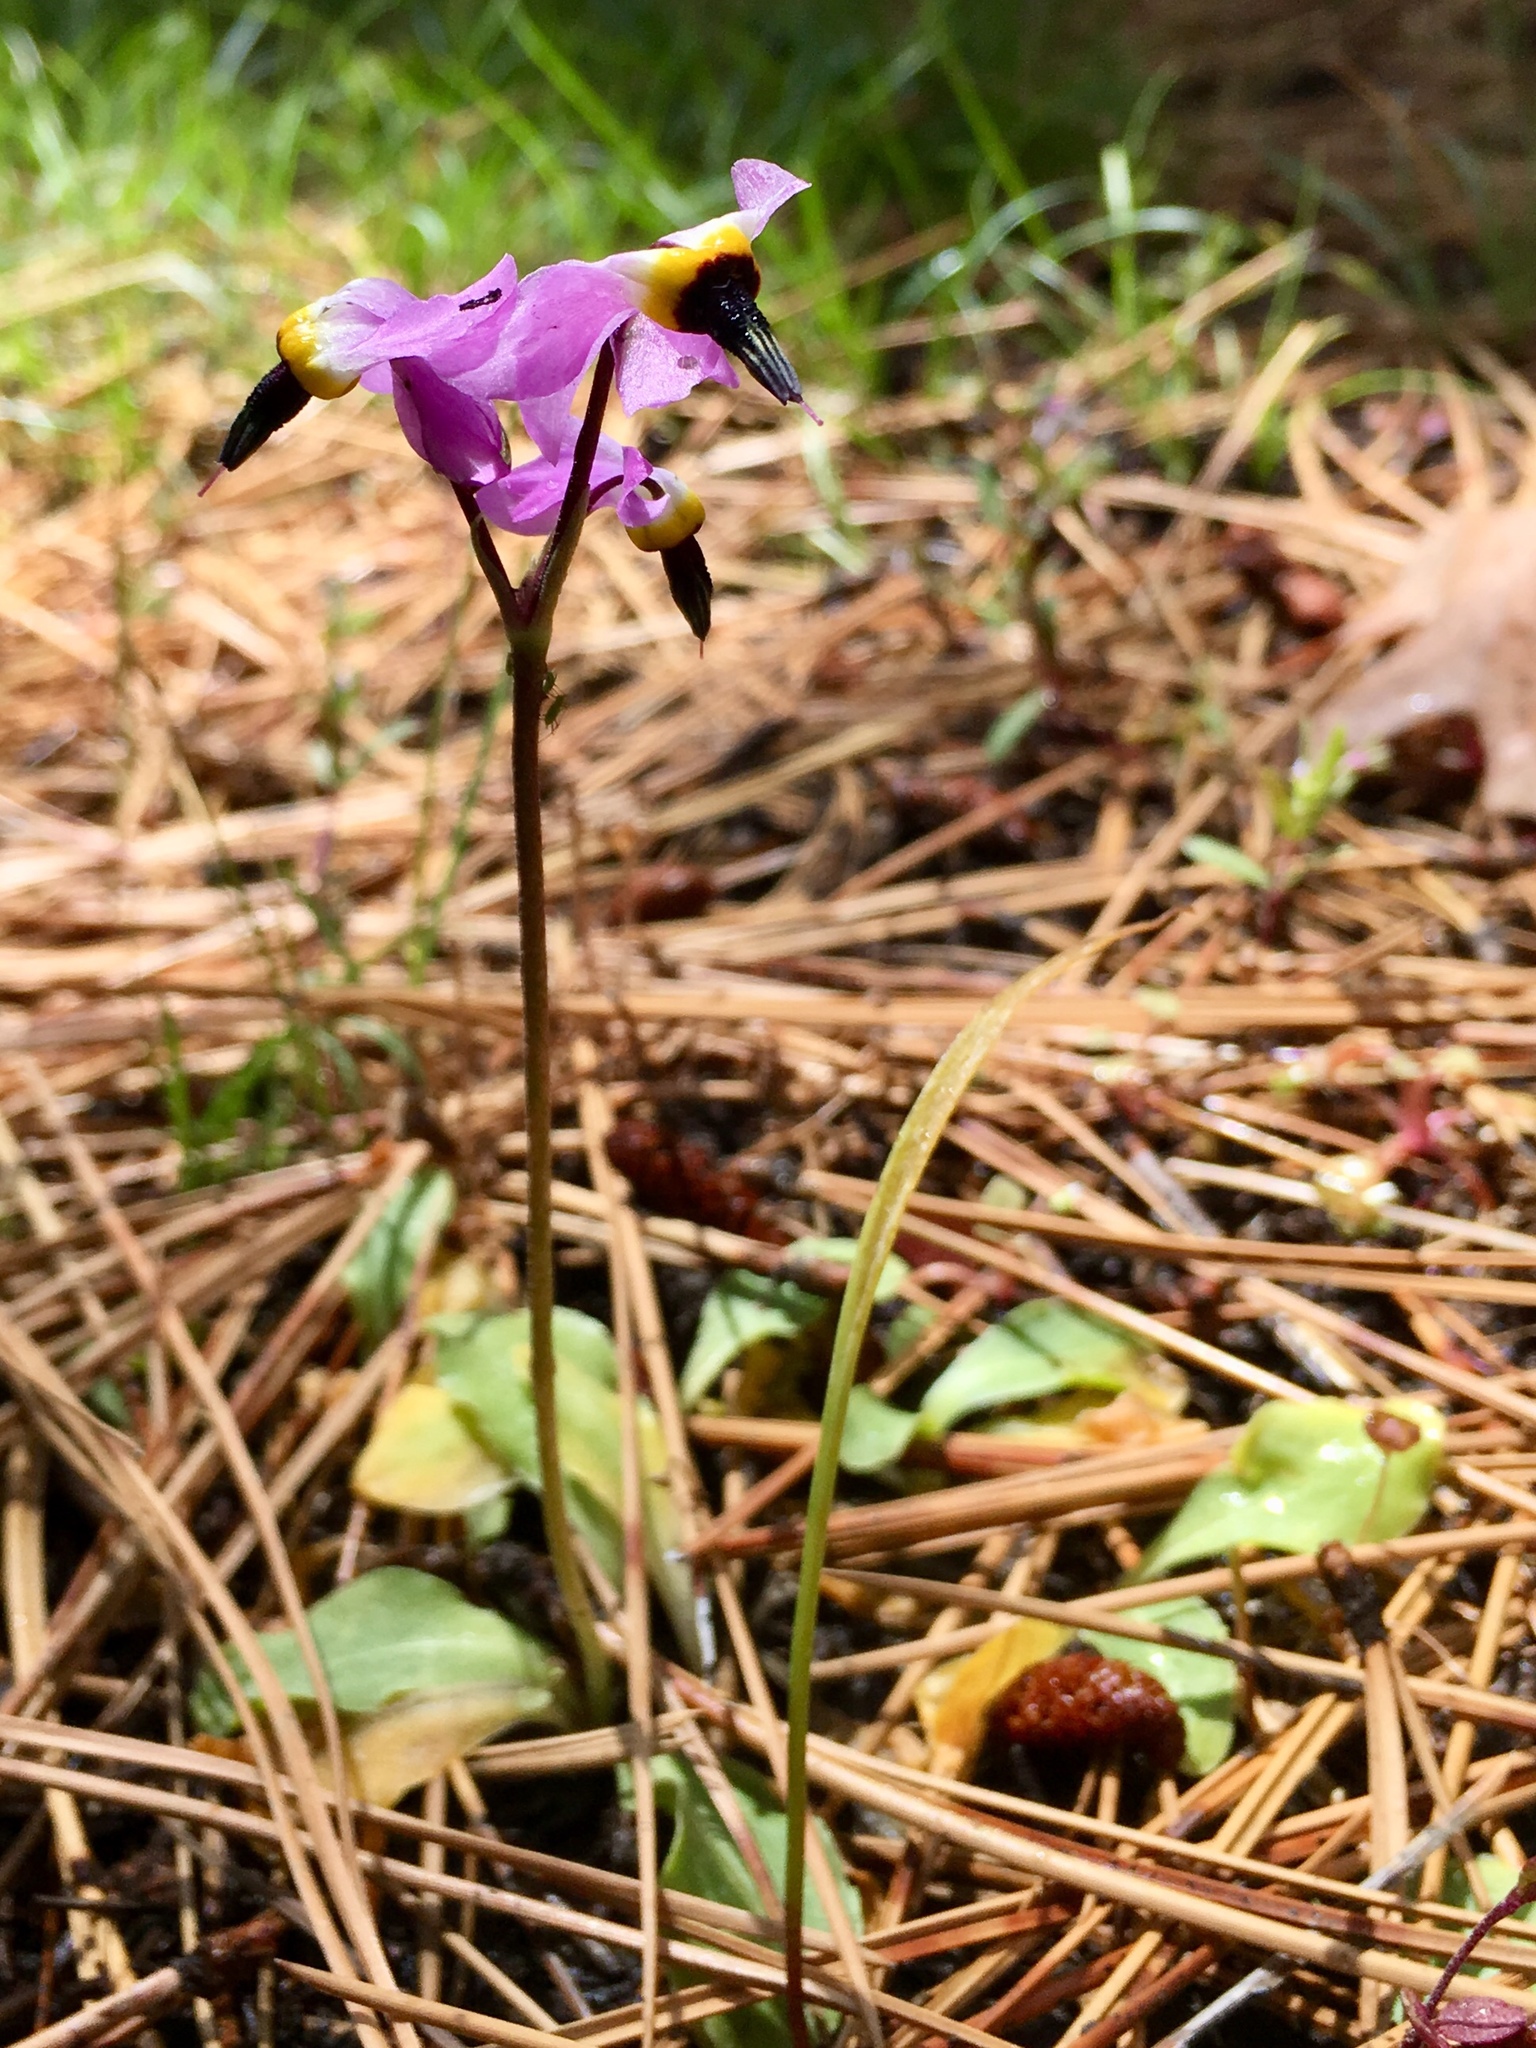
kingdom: Plantae
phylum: Tracheophyta
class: Magnoliopsida
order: Ericales
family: Primulaceae
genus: Dodecatheon
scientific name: Dodecatheon hendersonii
